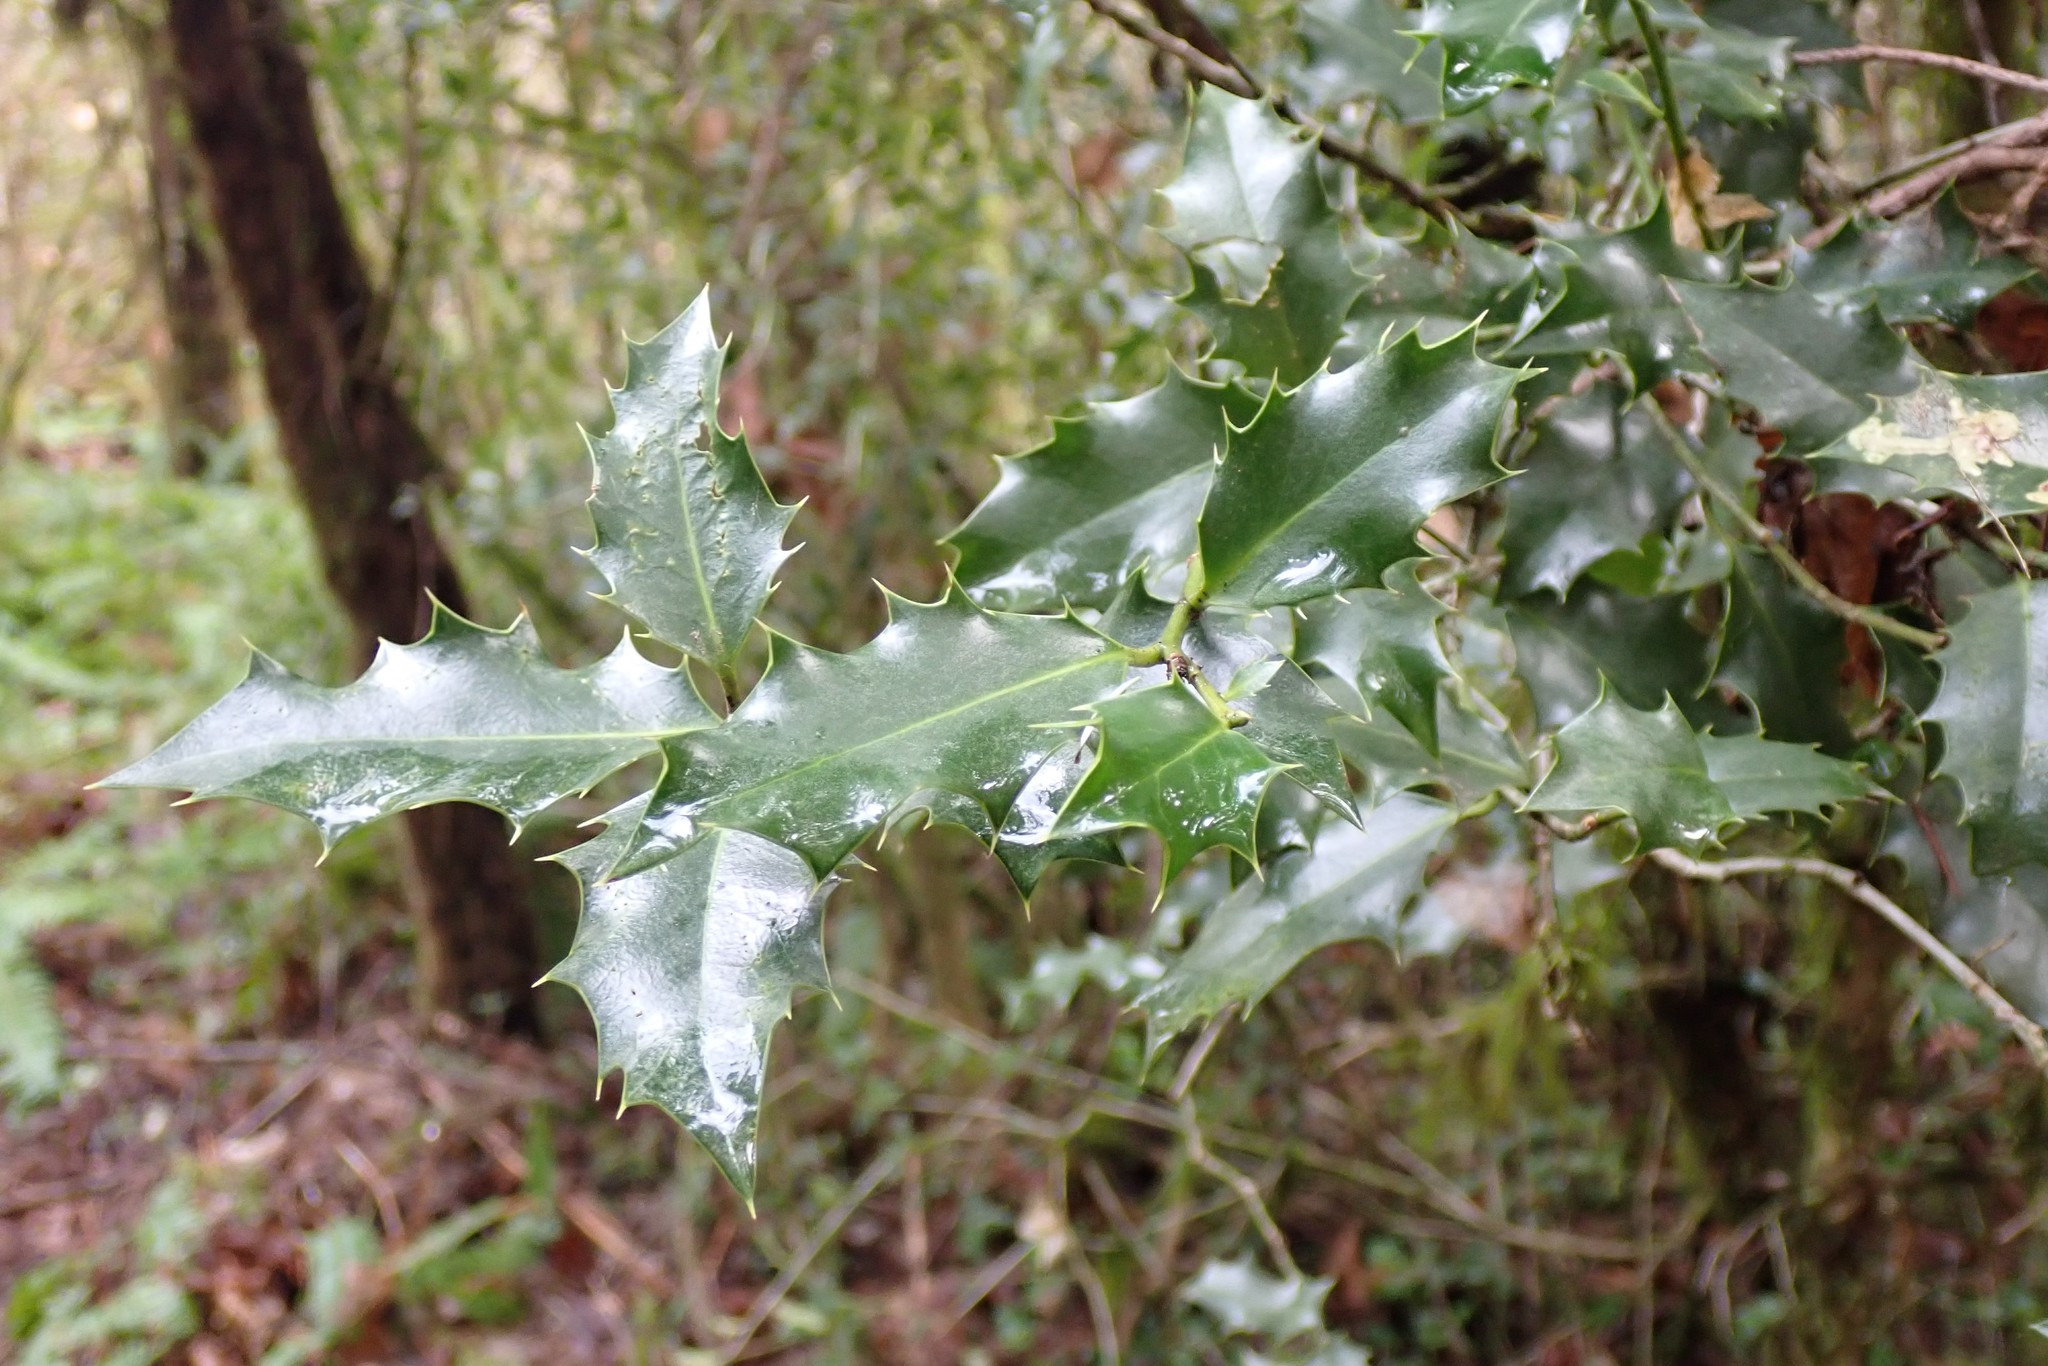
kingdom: Plantae
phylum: Tracheophyta
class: Magnoliopsida
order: Aquifoliales
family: Aquifoliaceae
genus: Ilex
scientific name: Ilex aquifolium
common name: English holly
